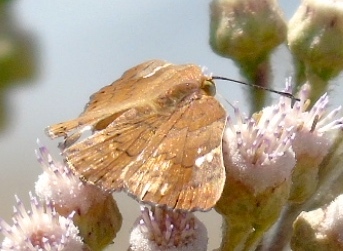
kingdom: Animalia
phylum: Arthropoda
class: Insecta
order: Lepidoptera
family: Riodinidae
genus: Curvie
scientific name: Curvie emesia
